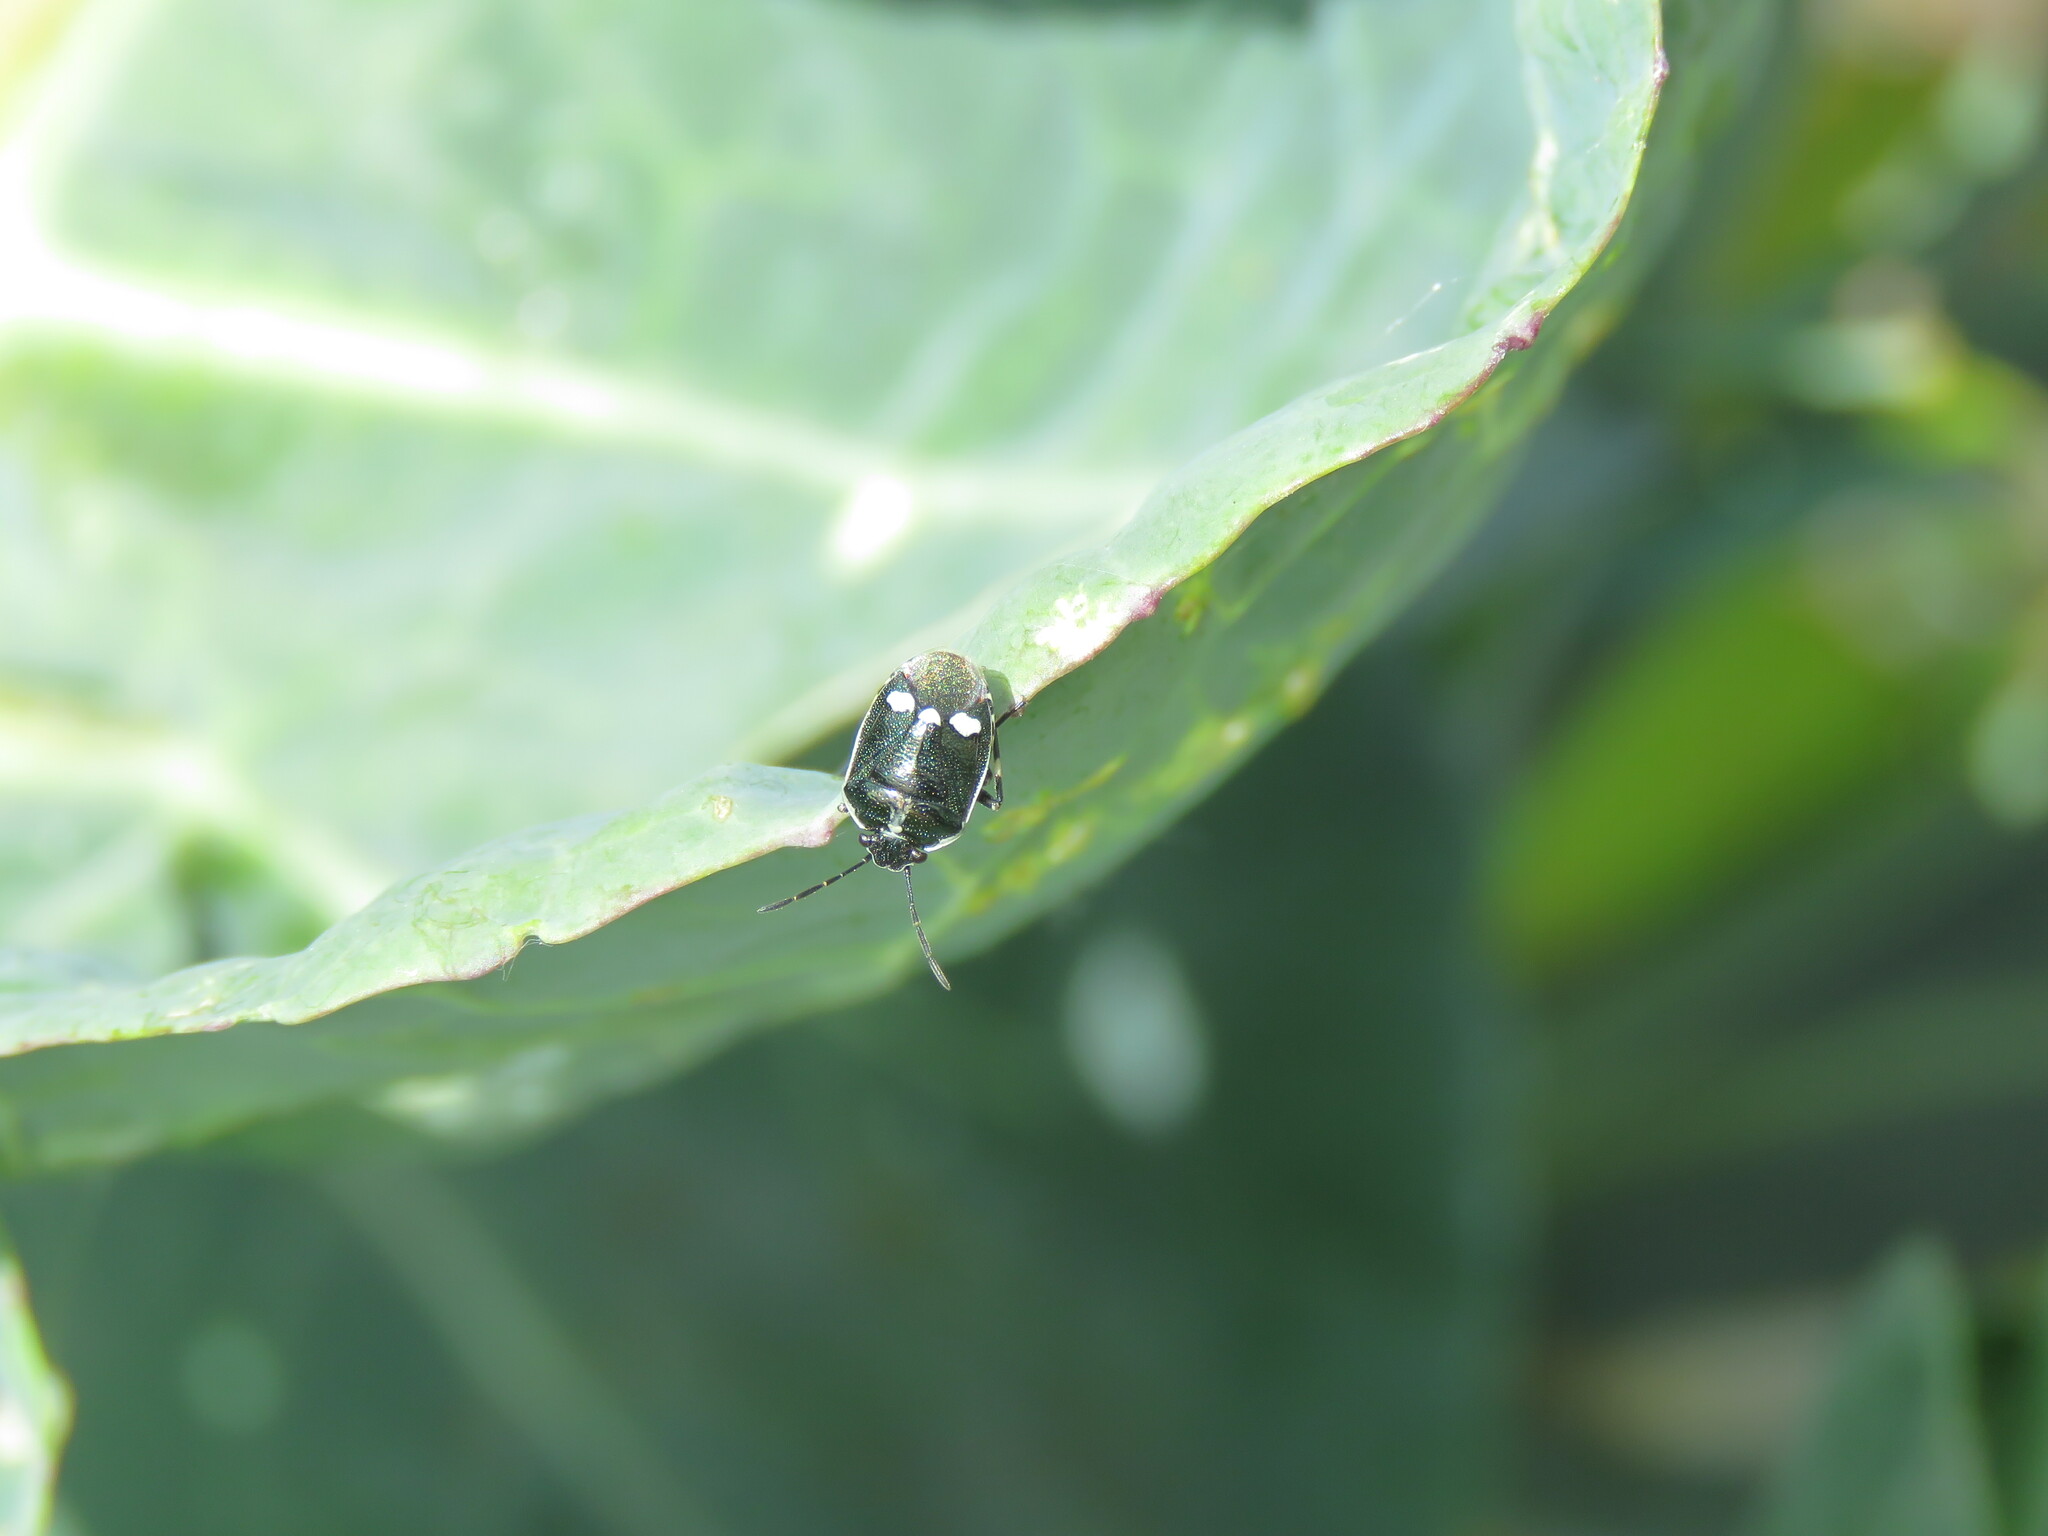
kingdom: Animalia
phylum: Arthropoda
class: Insecta
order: Hemiptera
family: Pentatomidae
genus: Eurydema
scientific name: Eurydema oleracea
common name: Cabbage bug
